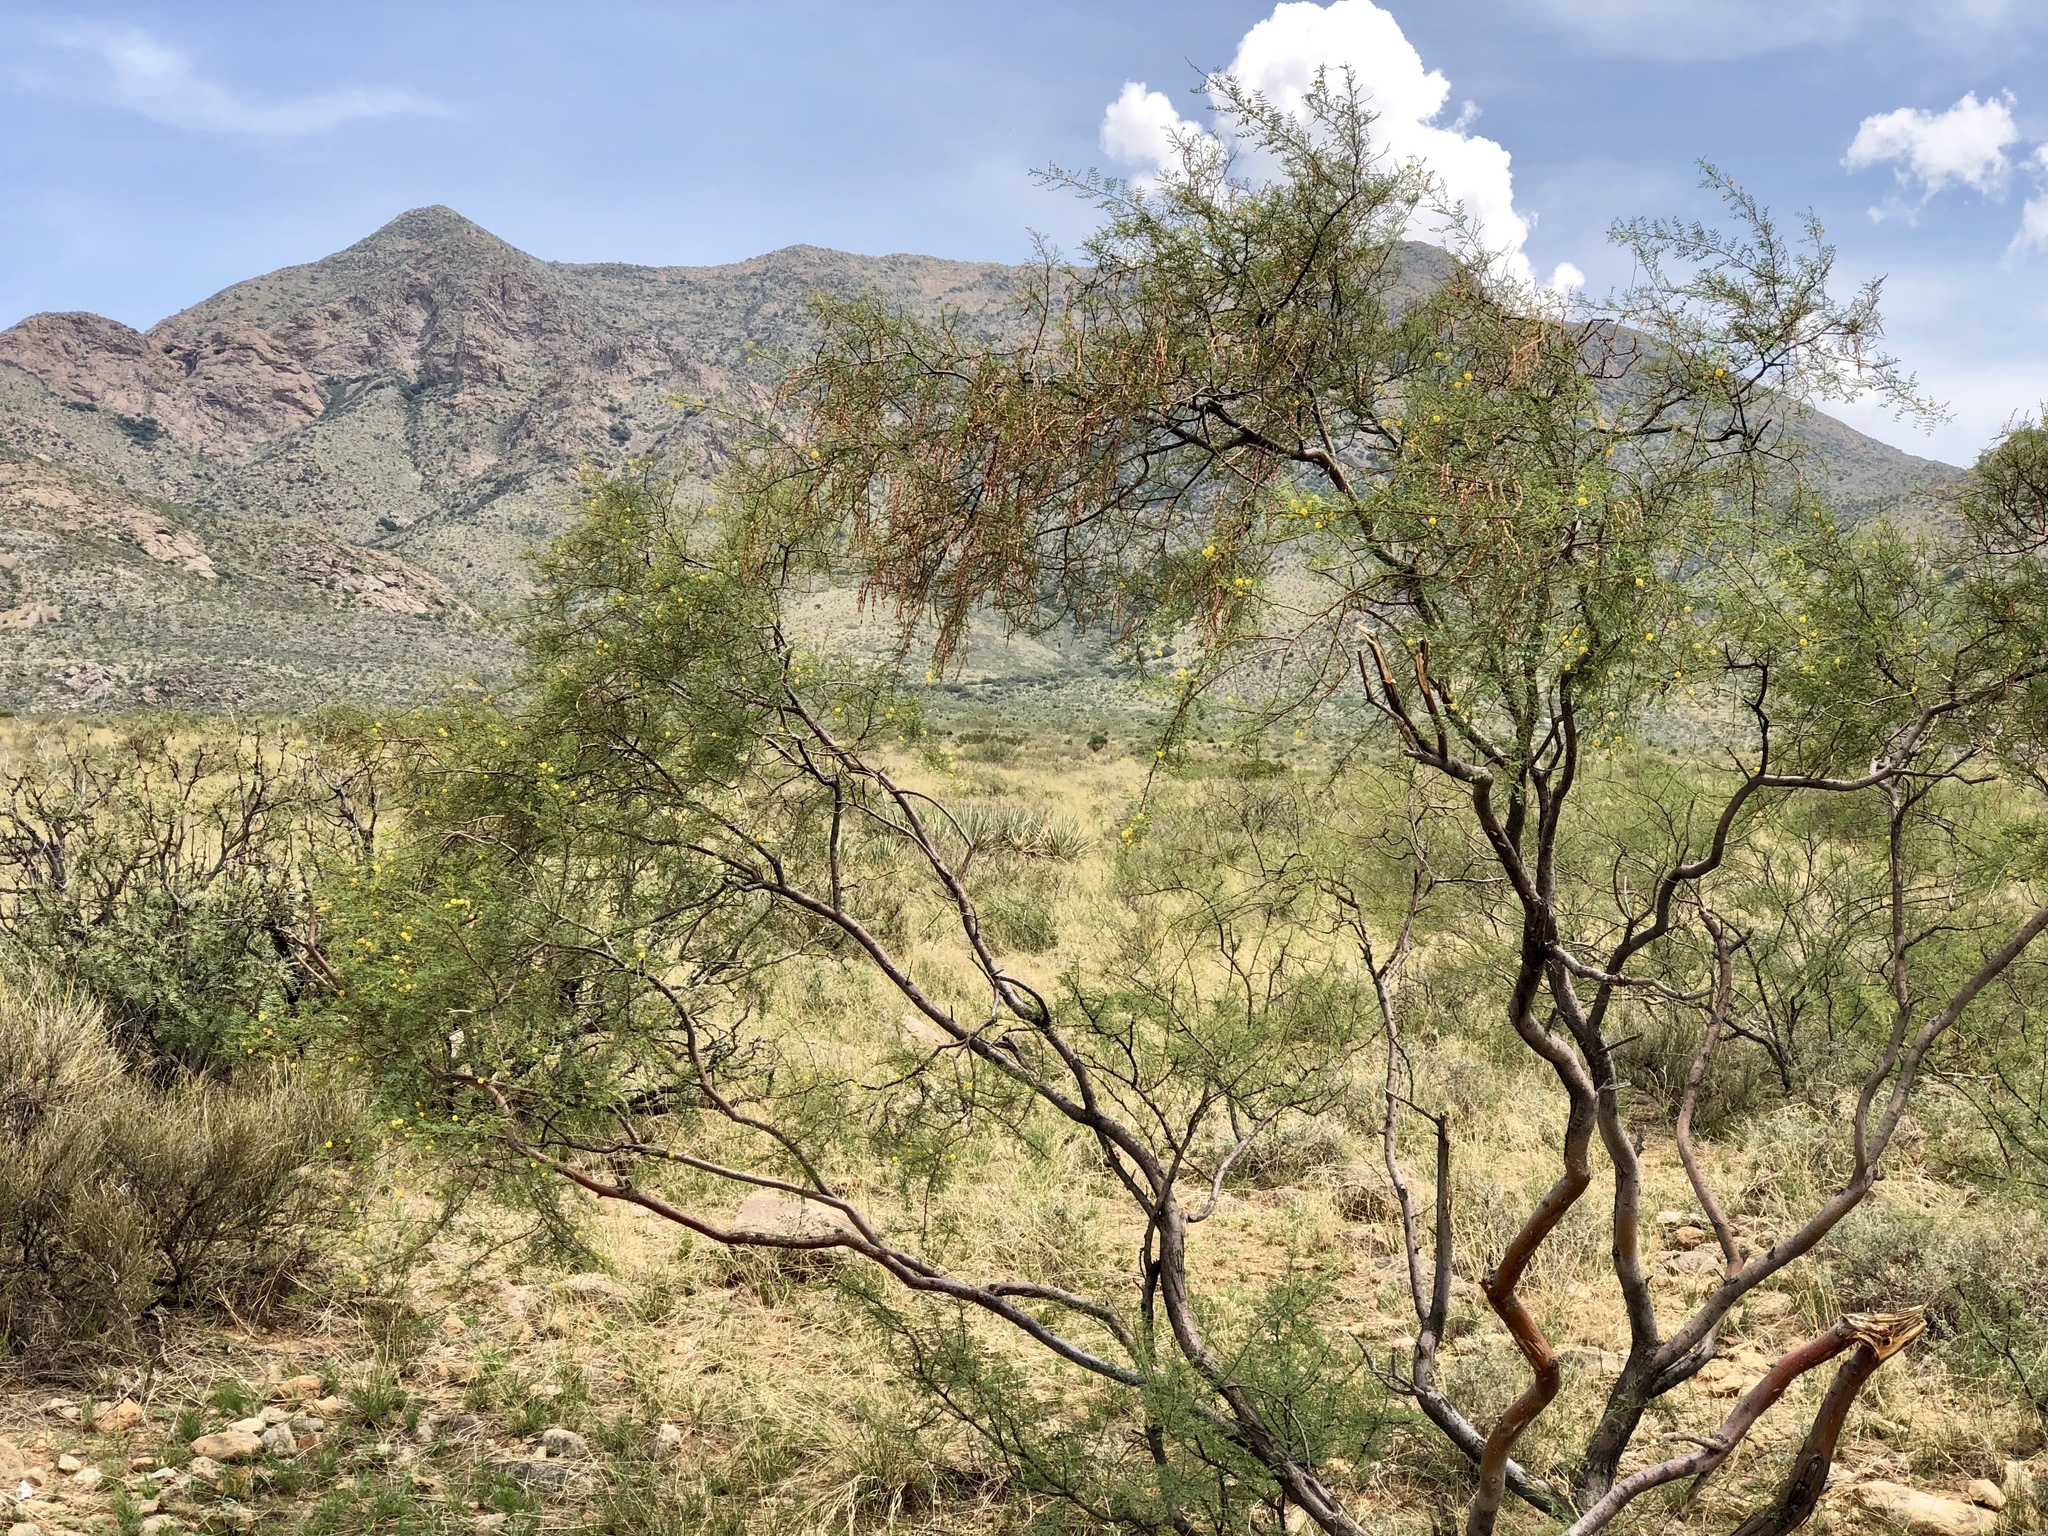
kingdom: Plantae
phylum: Tracheophyta
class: Magnoliopsida
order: Fabales
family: Fabaceae
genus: Vachellia
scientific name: Vachellia constricta
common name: Mescat acacia
